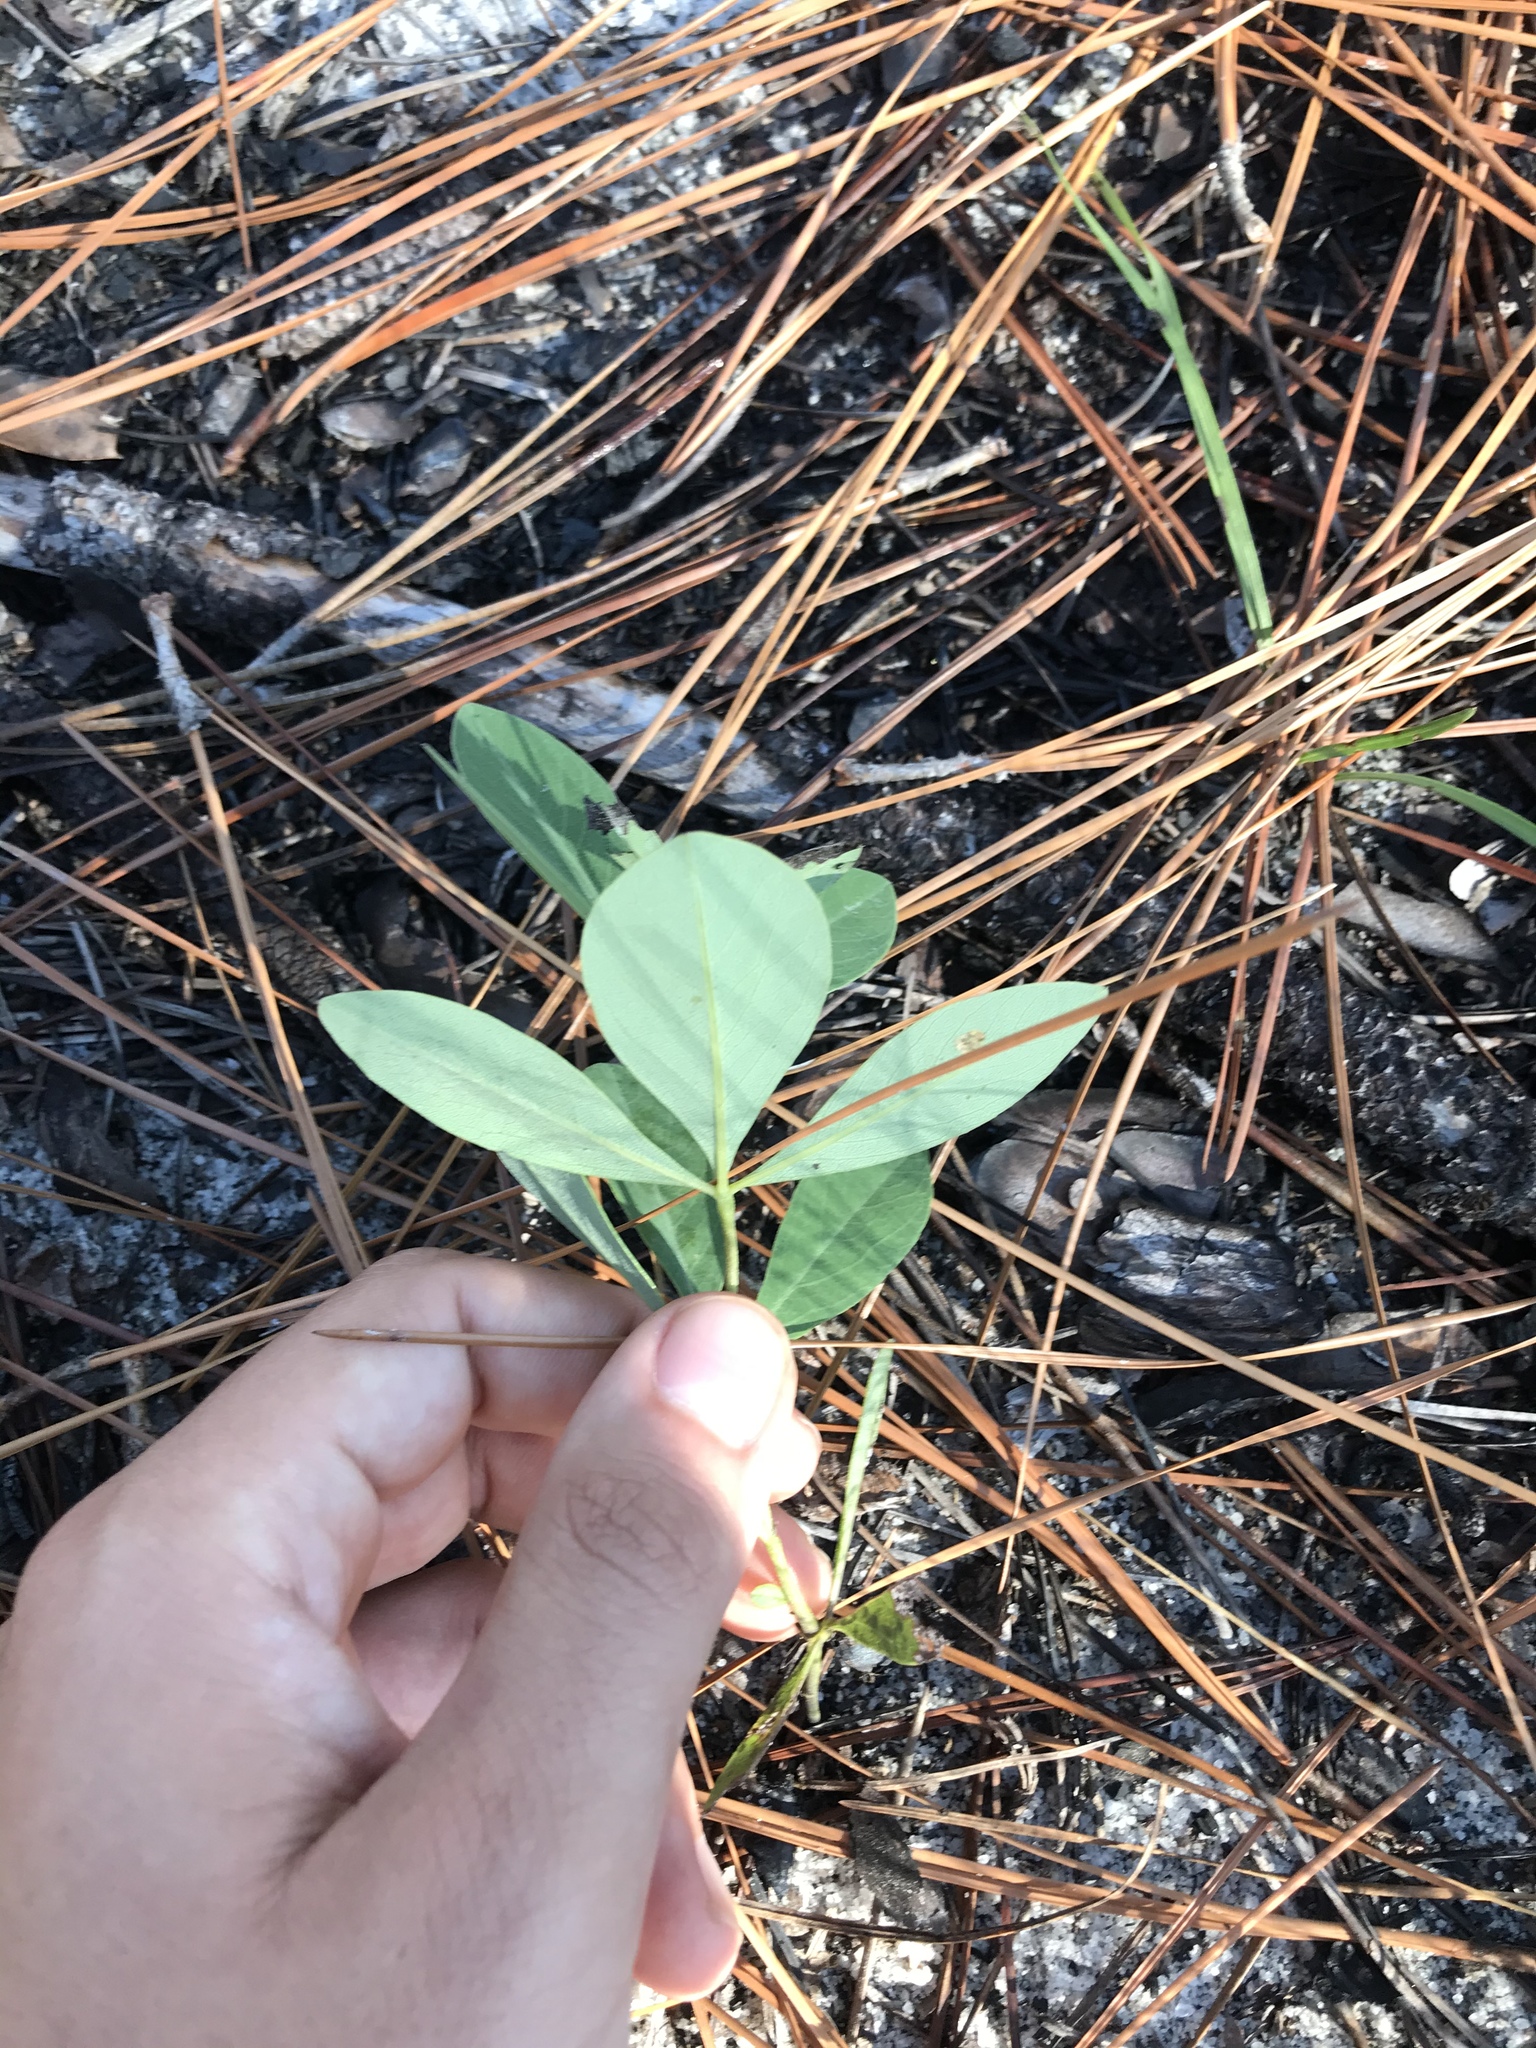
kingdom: Plantae
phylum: Tracheophyta
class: Magnoliopsida
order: Fabales
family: Fabaceae
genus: Baptisia
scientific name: Baptisia cinerea
